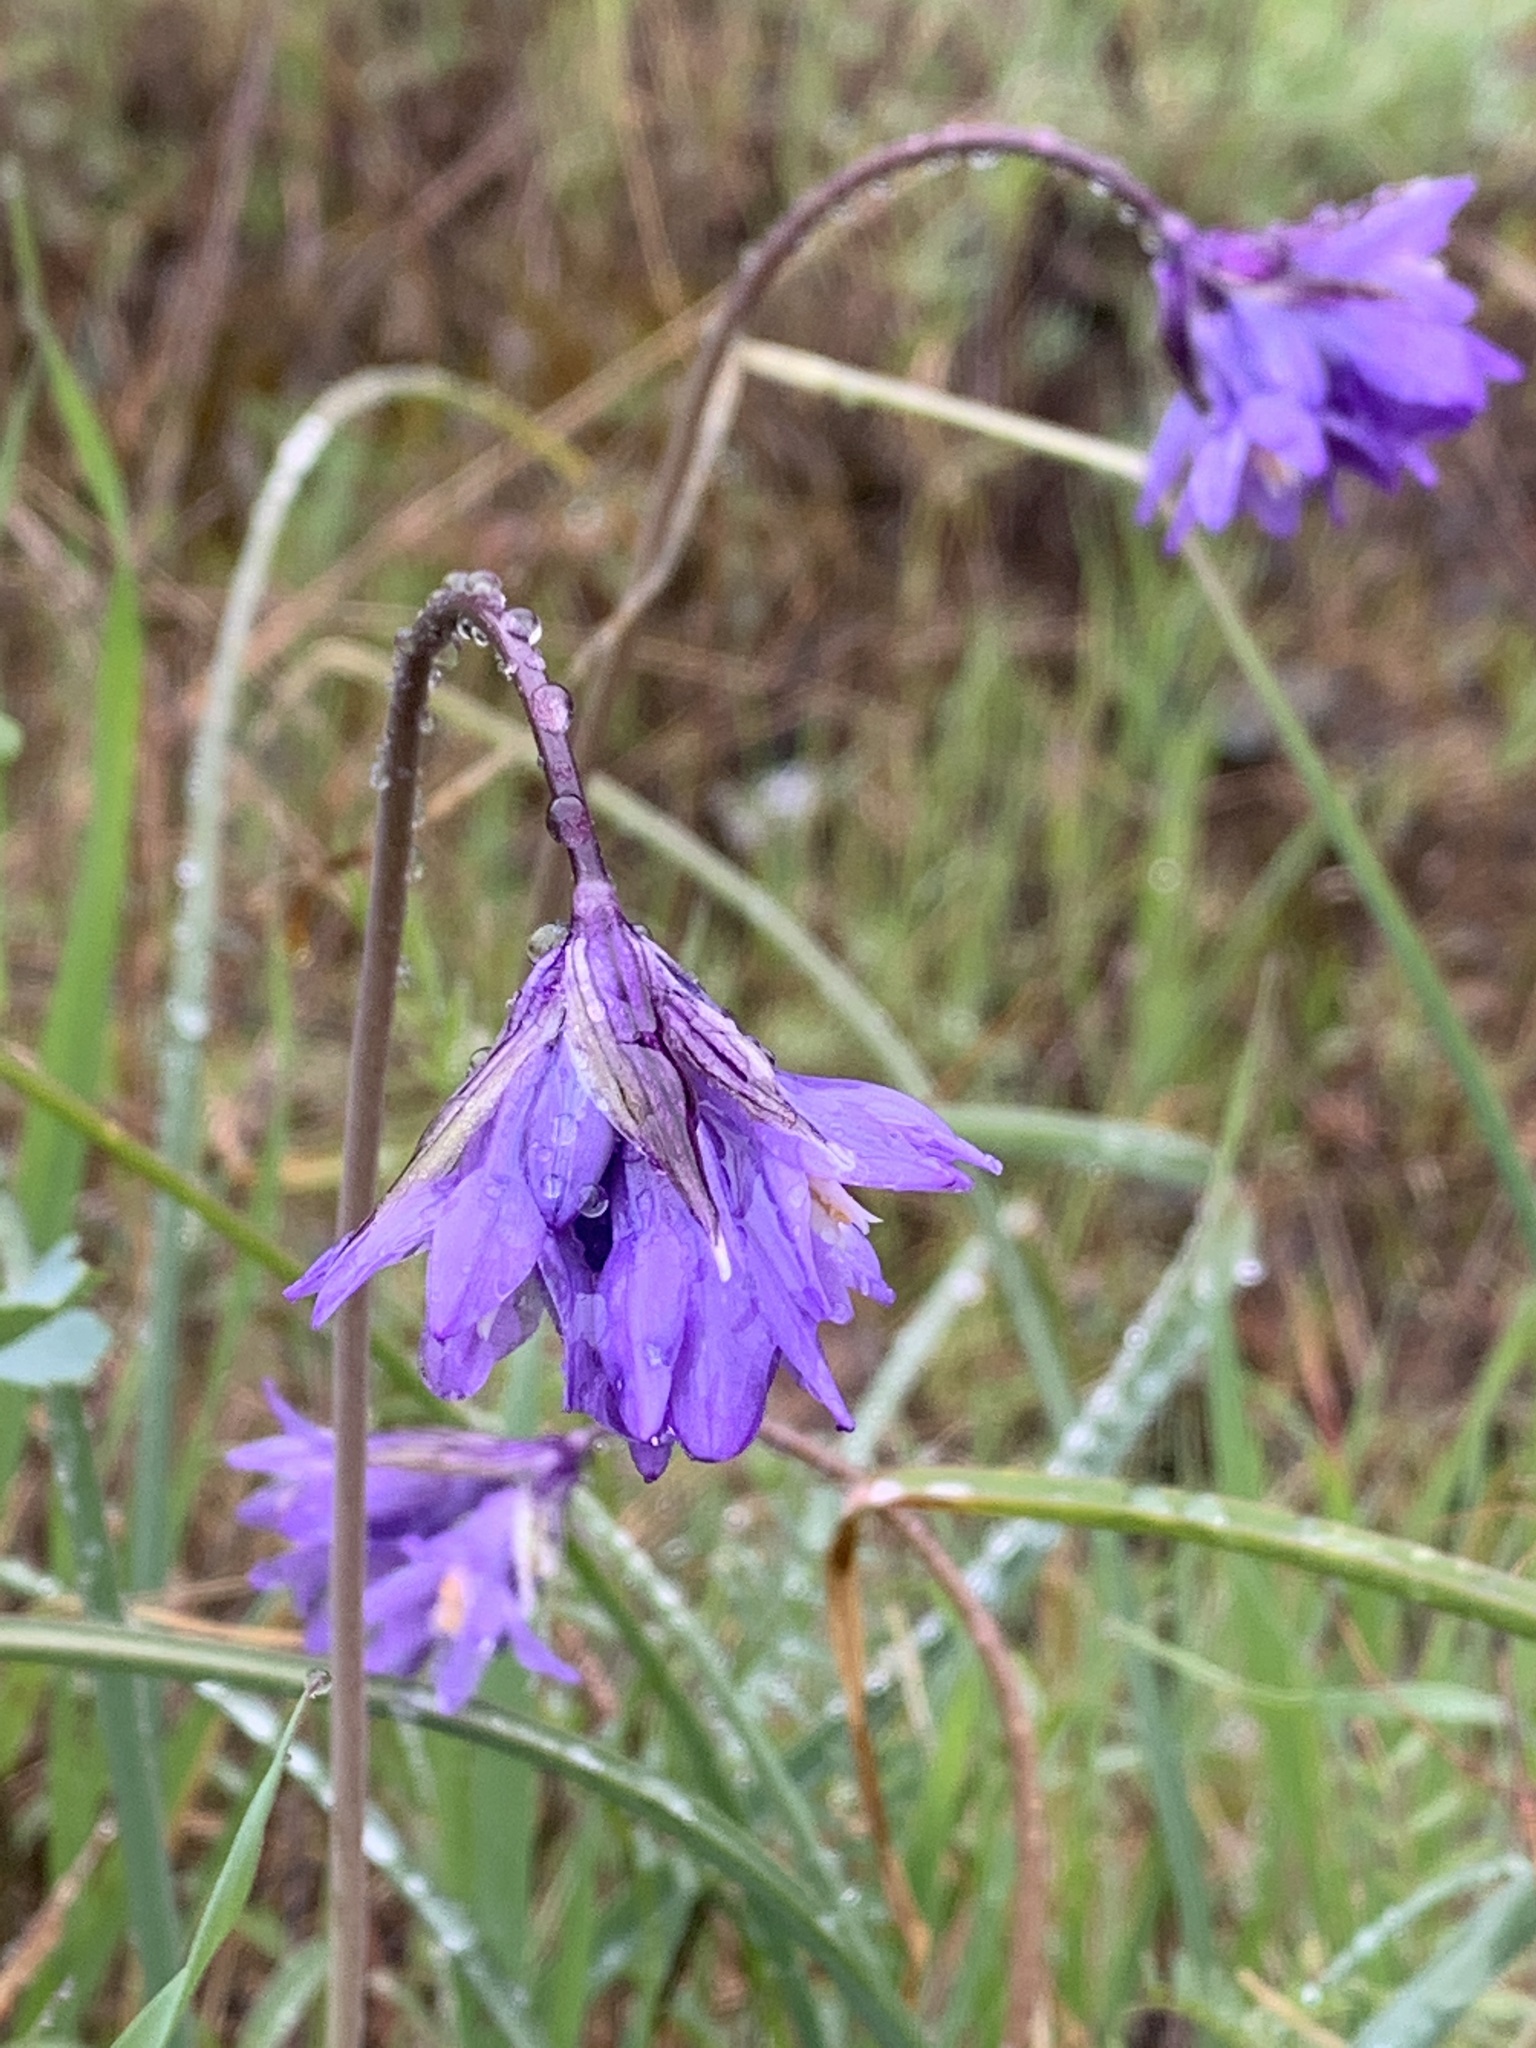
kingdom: Plantae
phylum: Tracheophyta
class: Liliopsida
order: Asparagales
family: Asparagaceae
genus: Dipterostemon
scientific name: Dipterostemon capitatus
